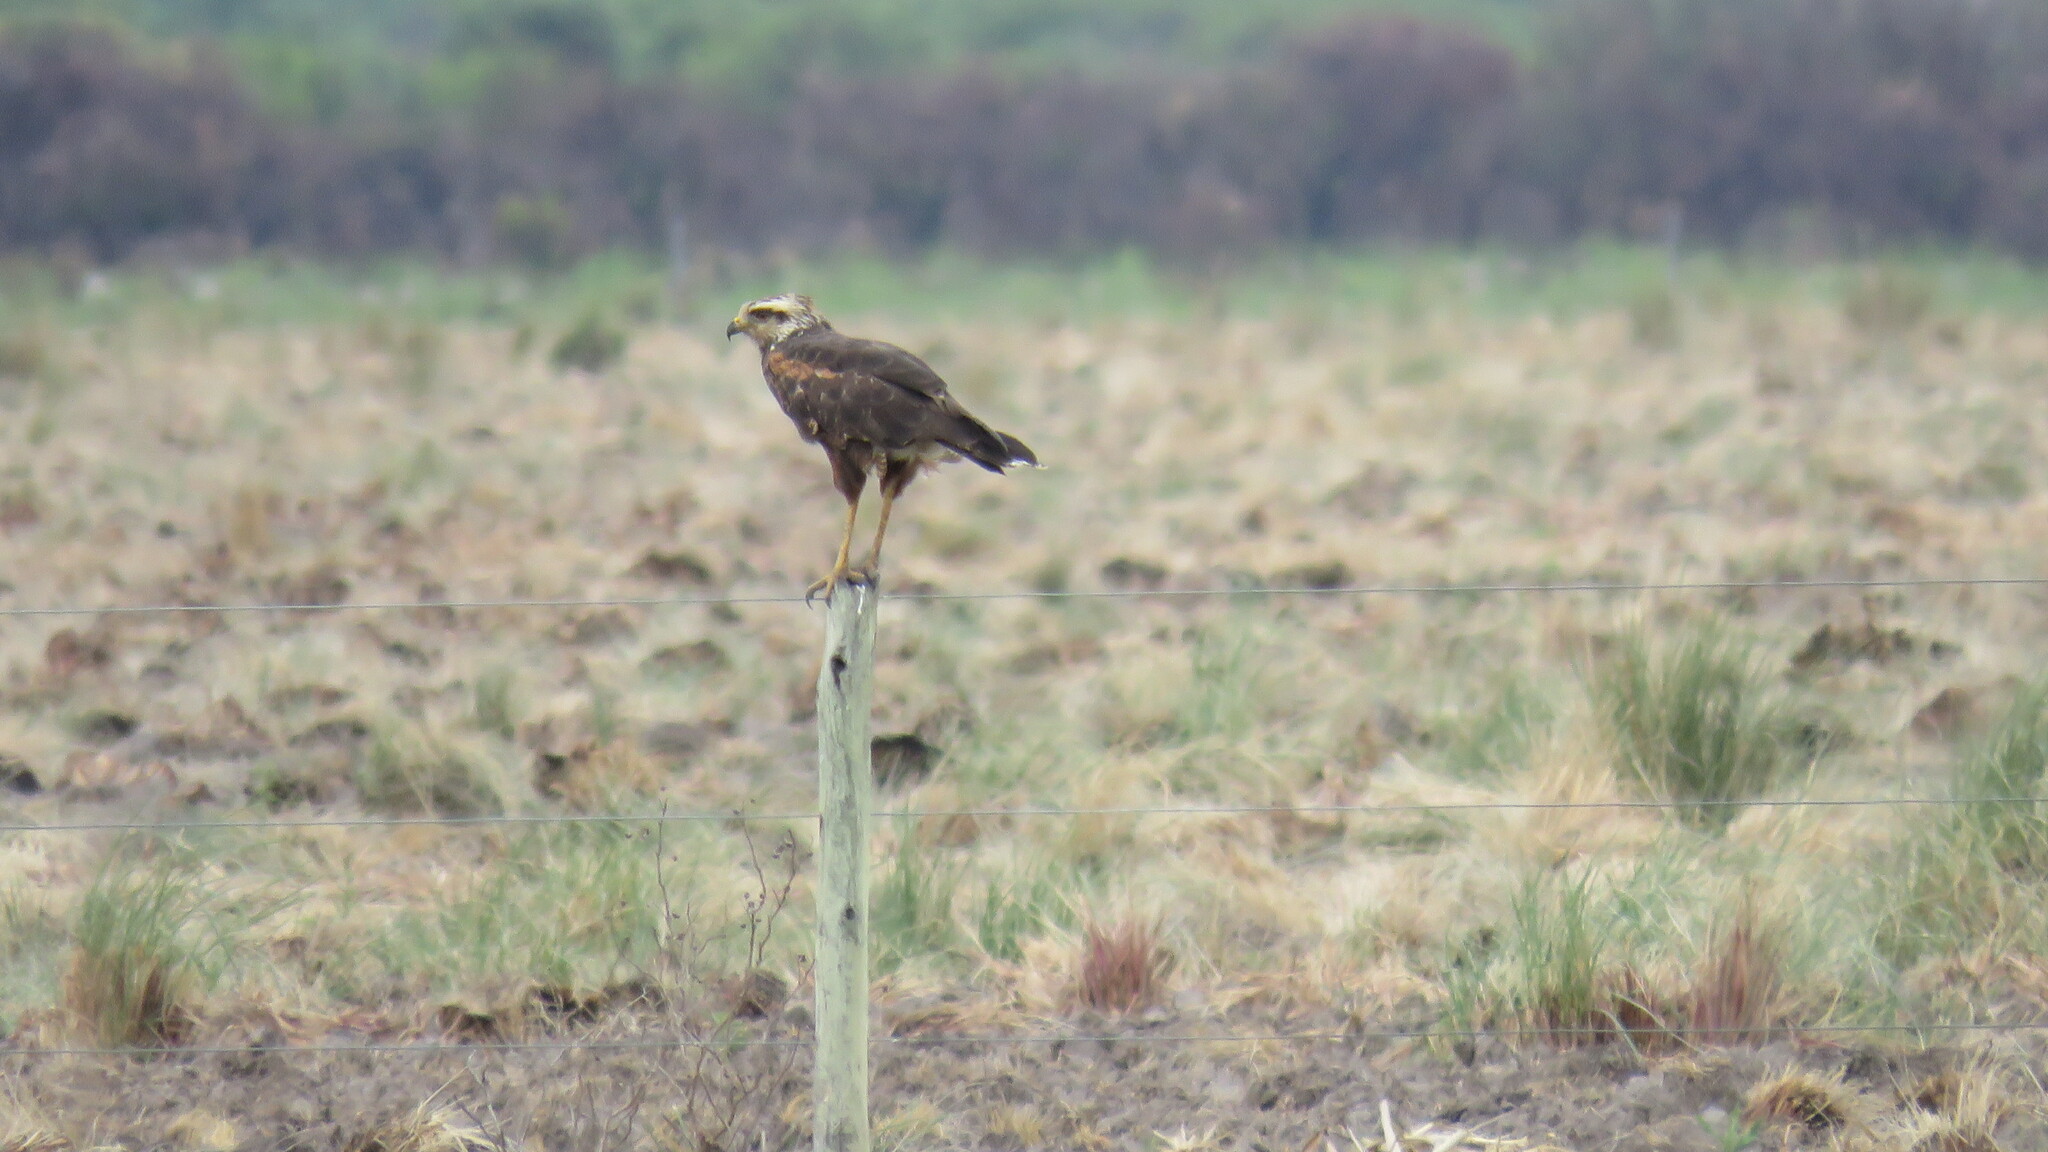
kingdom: Animalia
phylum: Chordata
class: Aves
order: Accipitriformes
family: Accipitridae
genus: Buteogallus
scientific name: Buteogallus meridionalis
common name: Savanna hawk
